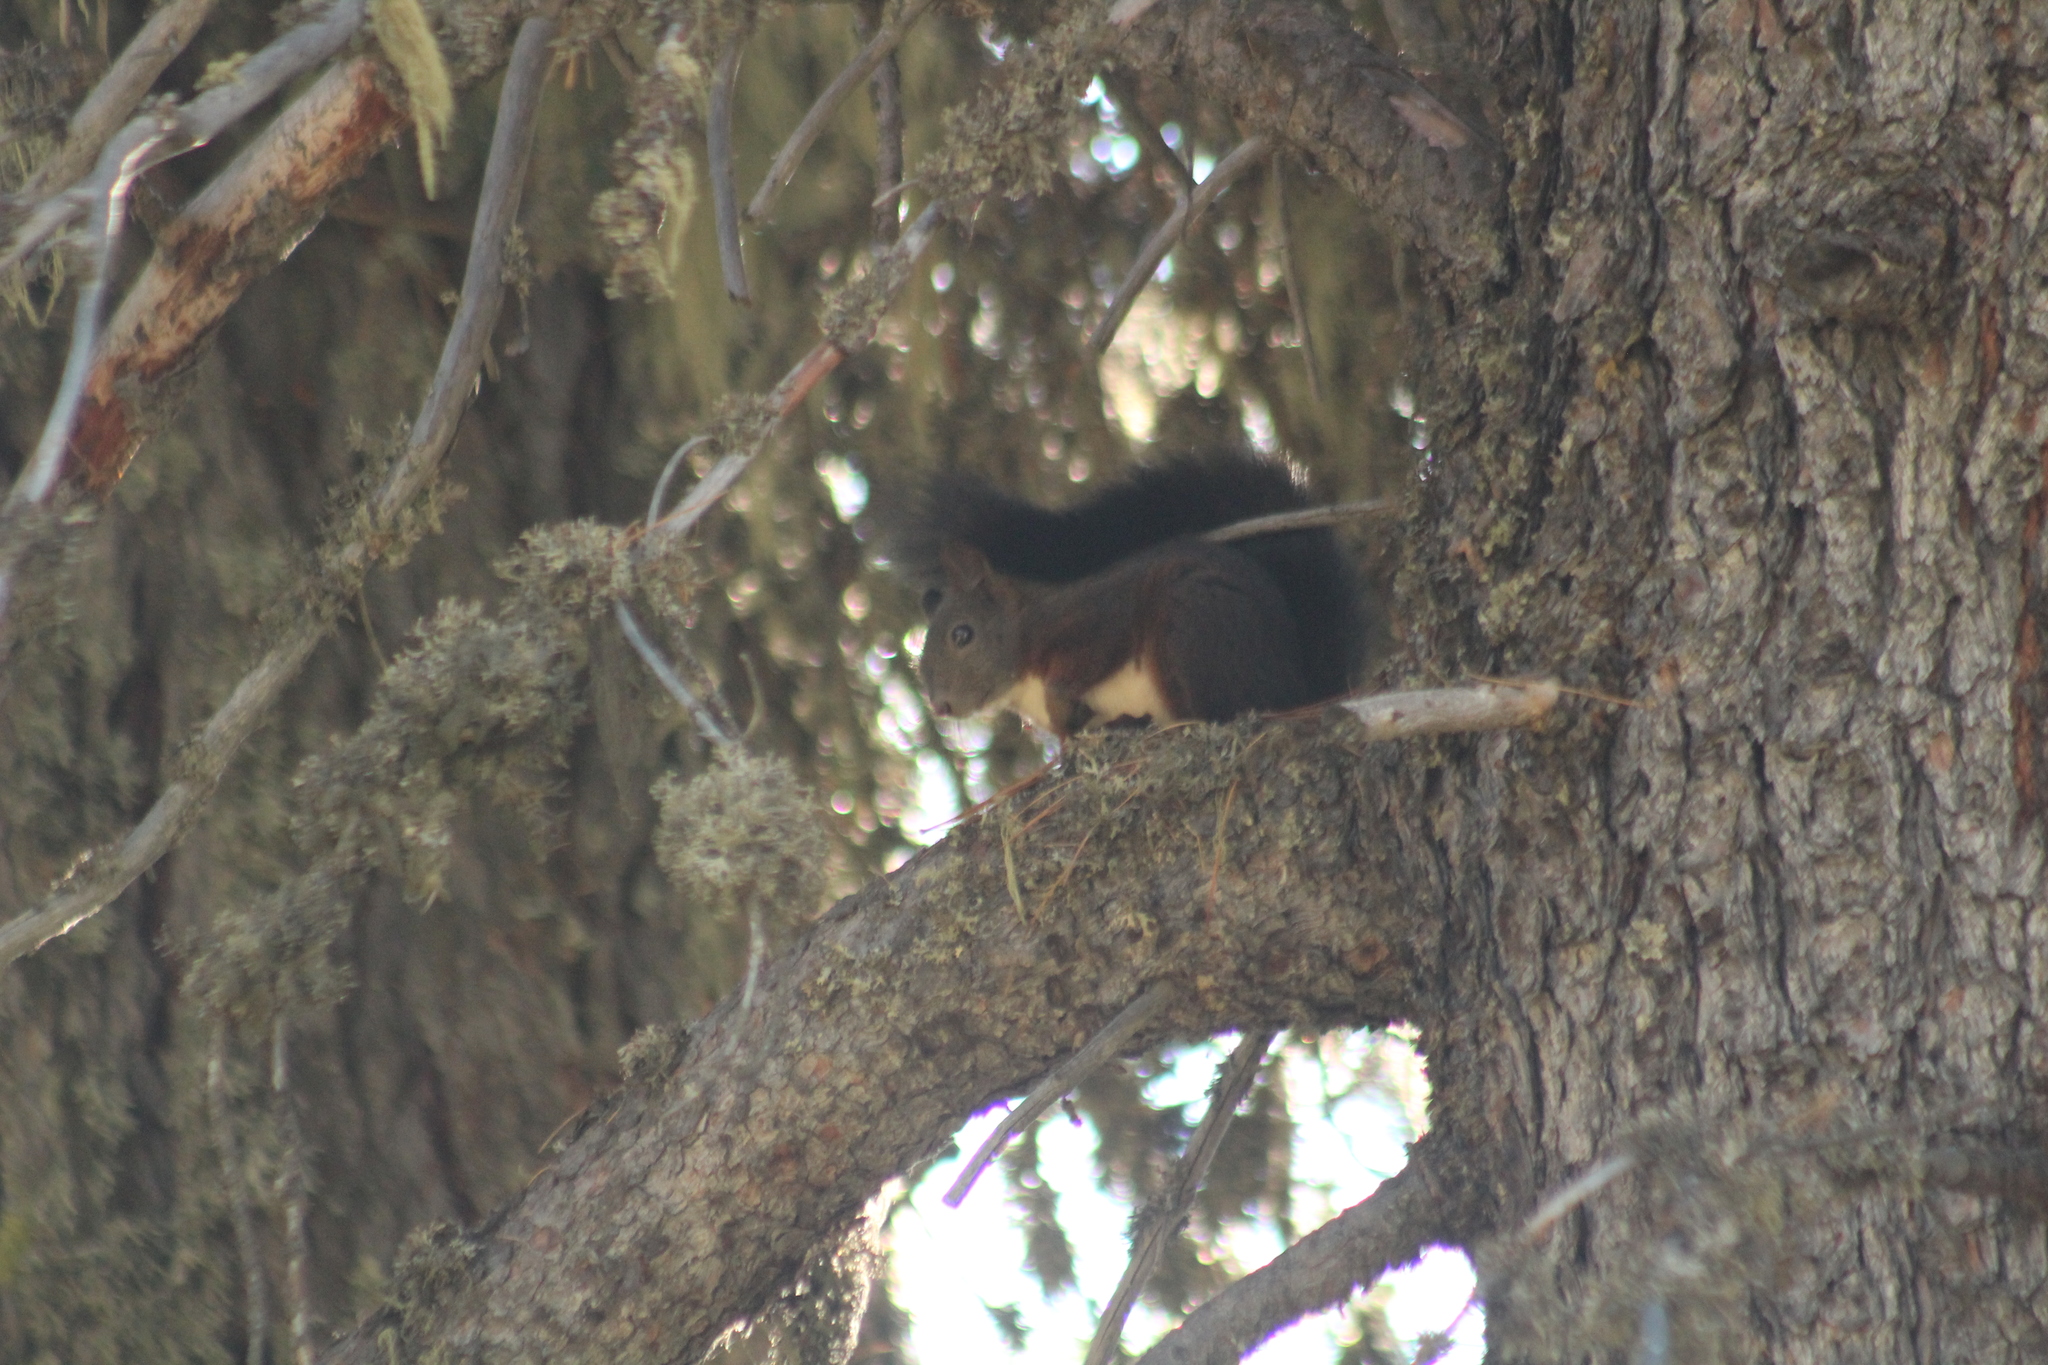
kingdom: Animalia
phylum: Chordata
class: Mammalia
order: Rodentia
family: Sciuridae
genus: Sciurus
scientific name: Sciurus vulgaris
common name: Eurasian red squirrel
